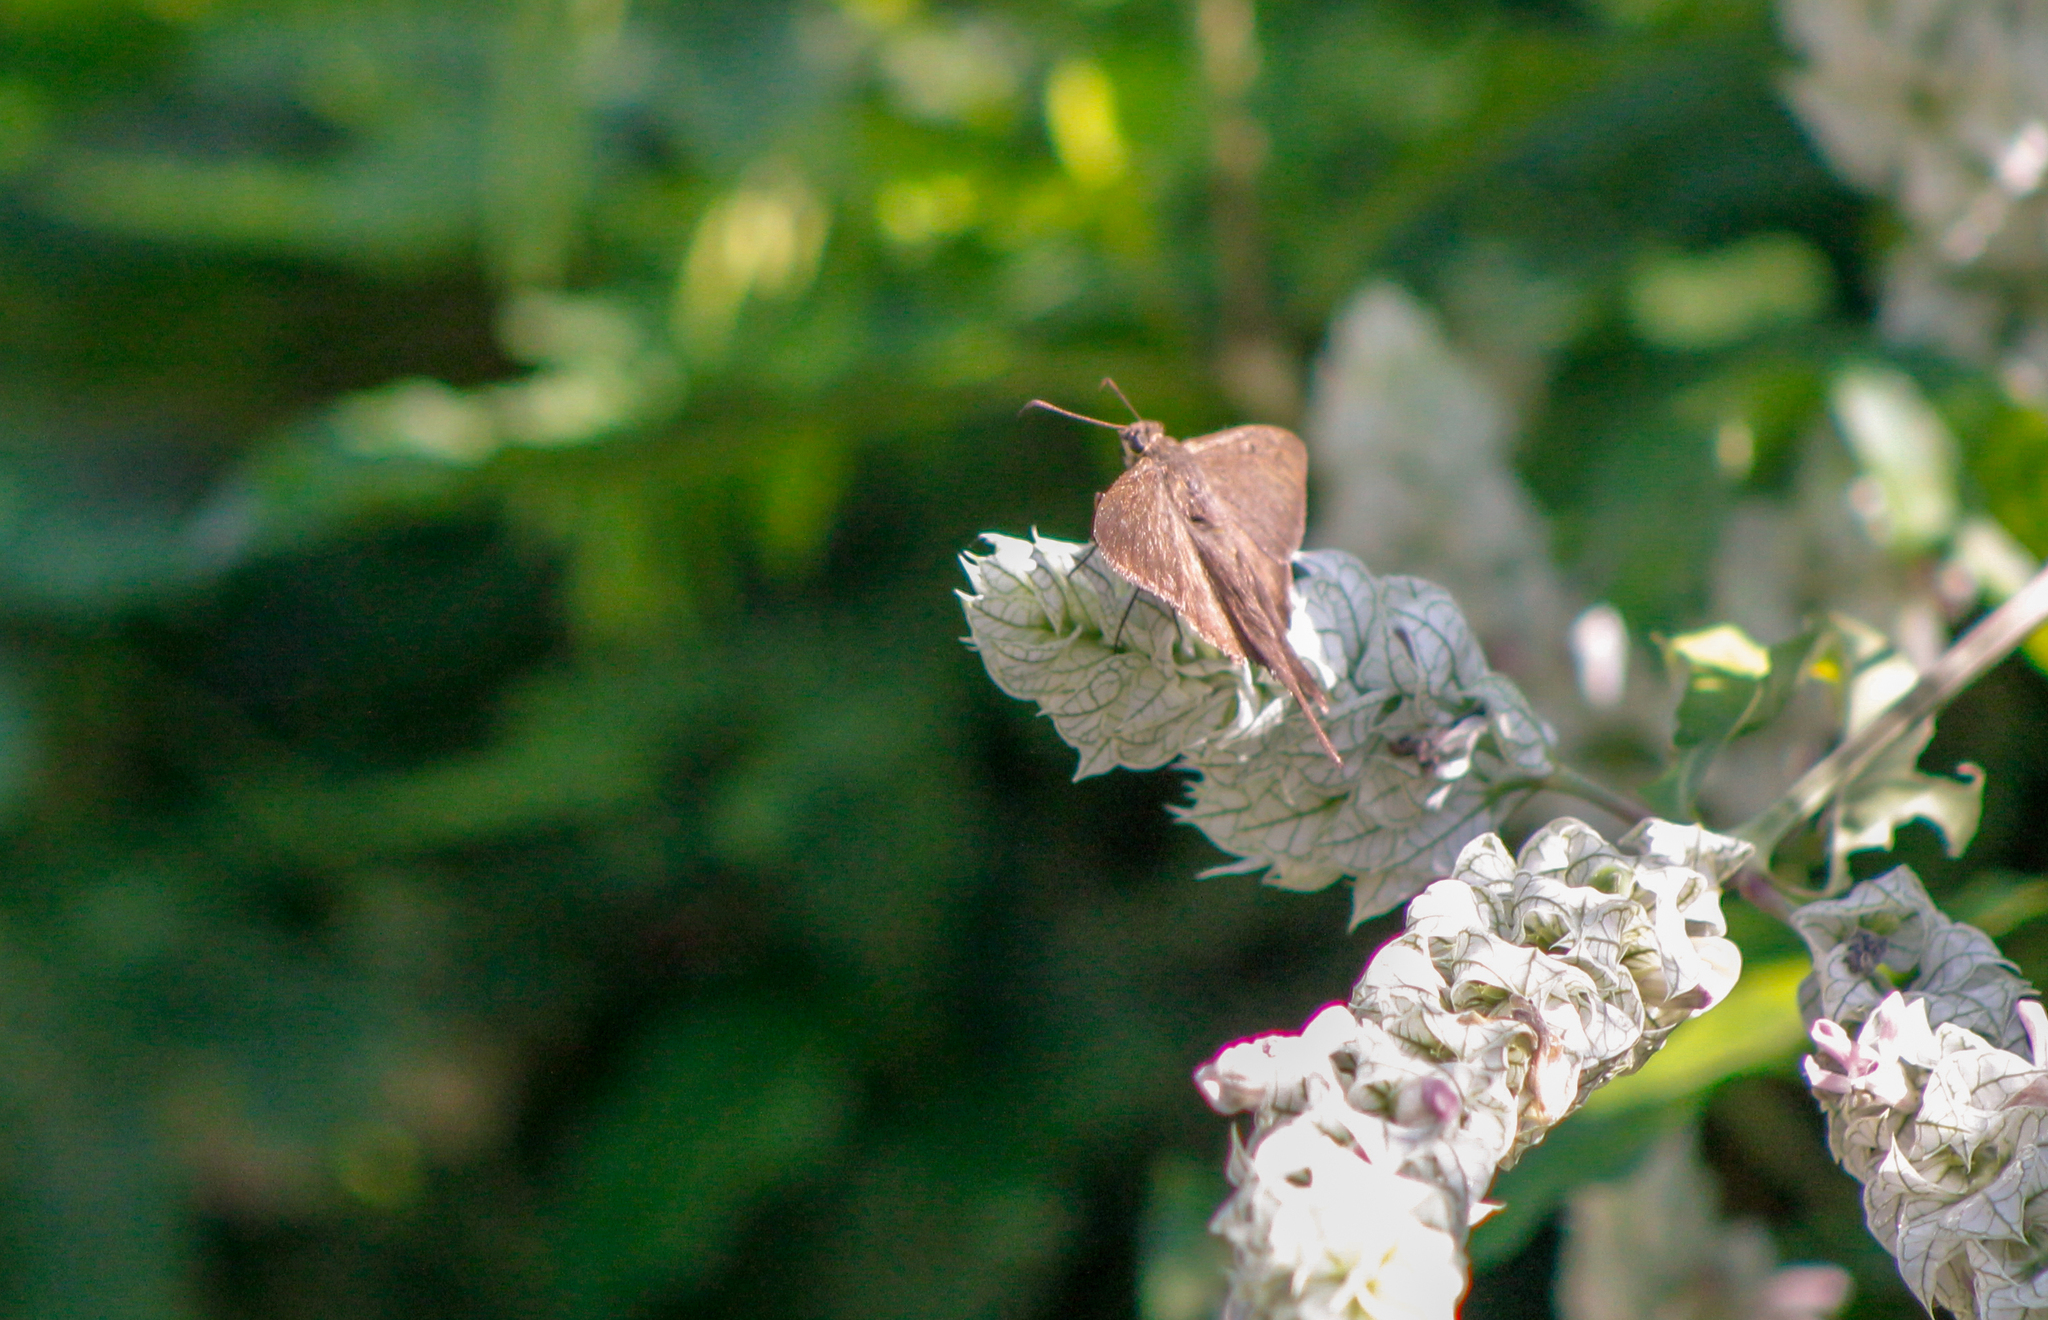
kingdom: Animalia
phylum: Arthropoda
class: Insecta
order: Lepidoptera
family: Hesperiidae
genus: Urbanus
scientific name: Urbanus simplicius
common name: Plain longtail
